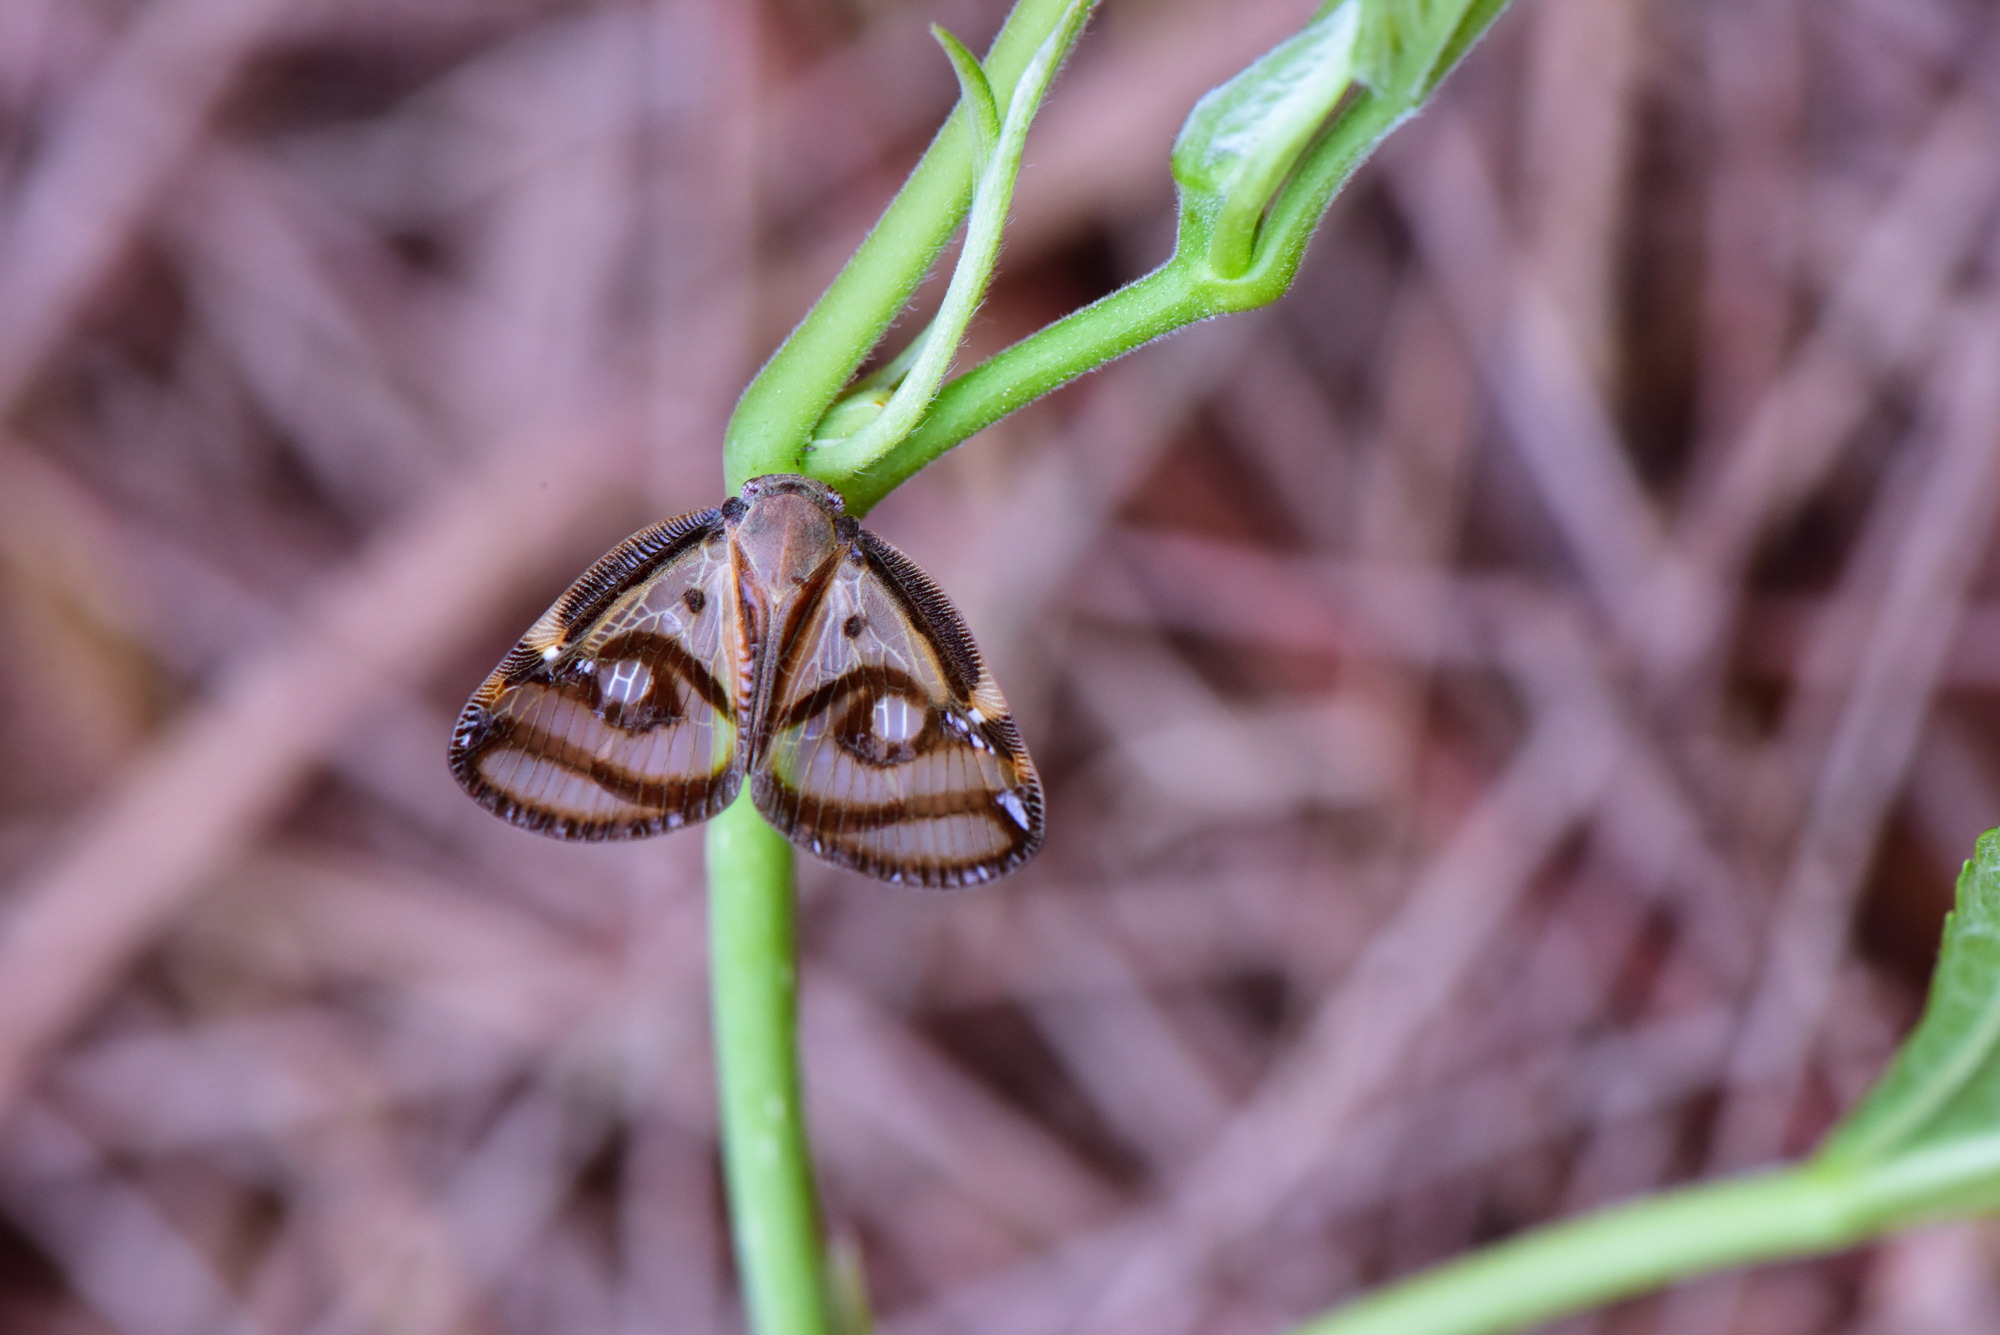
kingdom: Animalia
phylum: Arthropoda
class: Insecta
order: Hemiptera
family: Ricaniidae
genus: Euricania
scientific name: Euricania ocella
